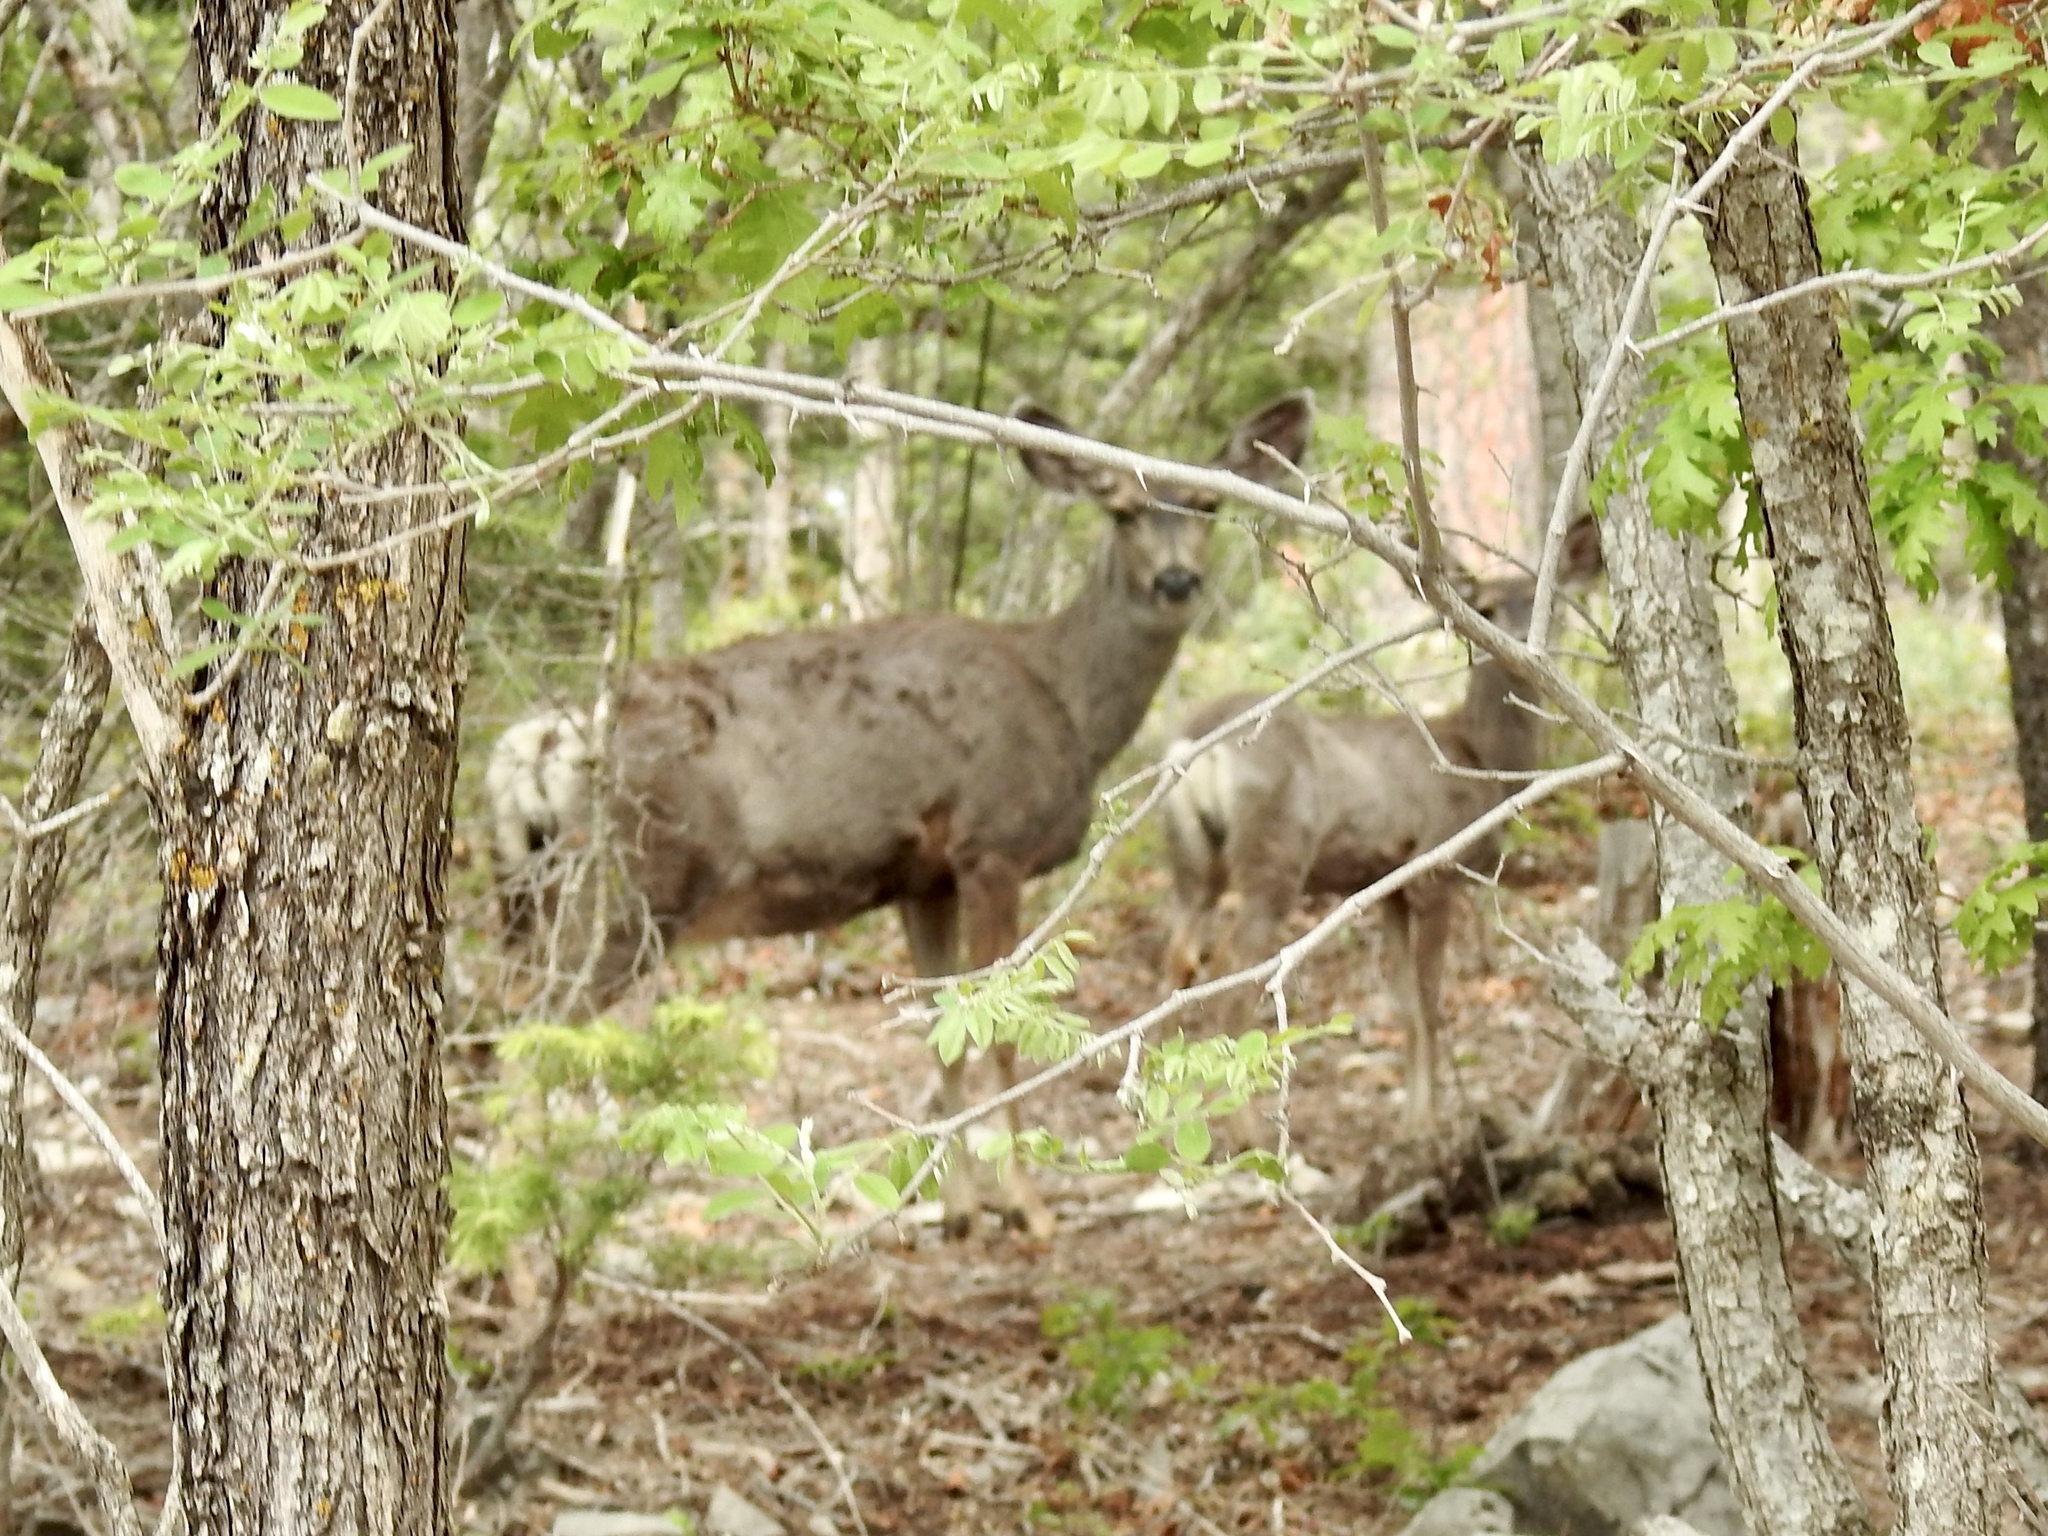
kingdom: Animalia
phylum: Chordata
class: Mammalia
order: Artiodactyla
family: Cervidae
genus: Odocoileus
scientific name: Odocoileus hemionus
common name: Mule deer
